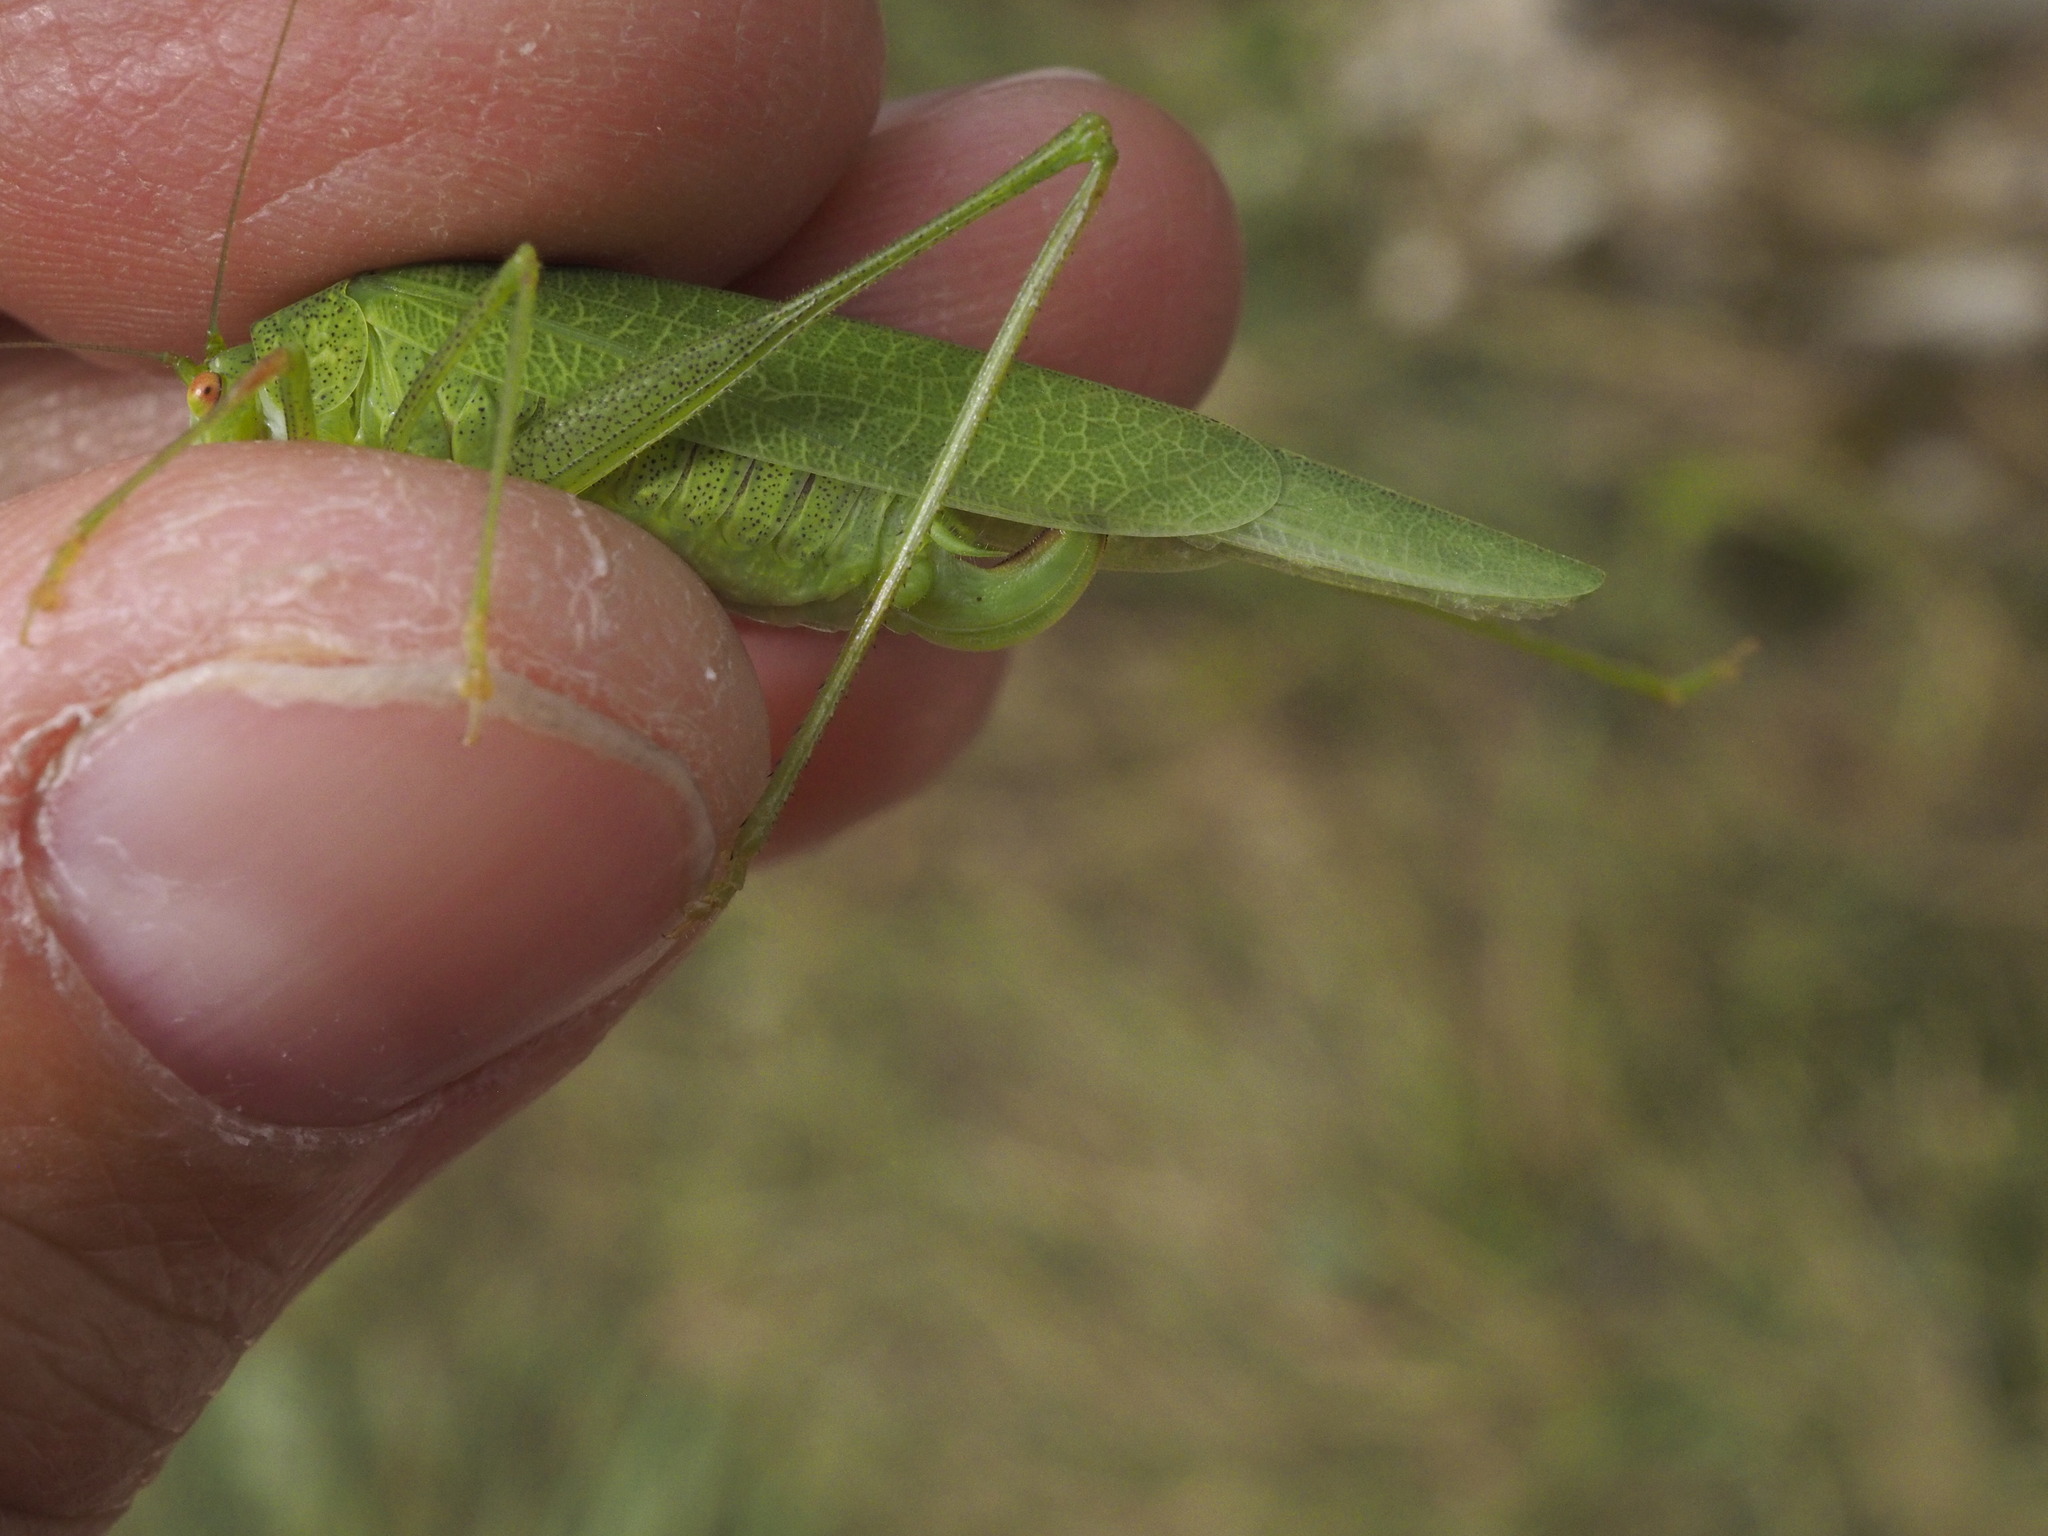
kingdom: Animalia
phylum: Arthropoda
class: Insecta
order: Orthoptera
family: Tettigoniidae
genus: Phaneroptera
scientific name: Phaneroptera nana
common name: Southern sickle bush-cricket
